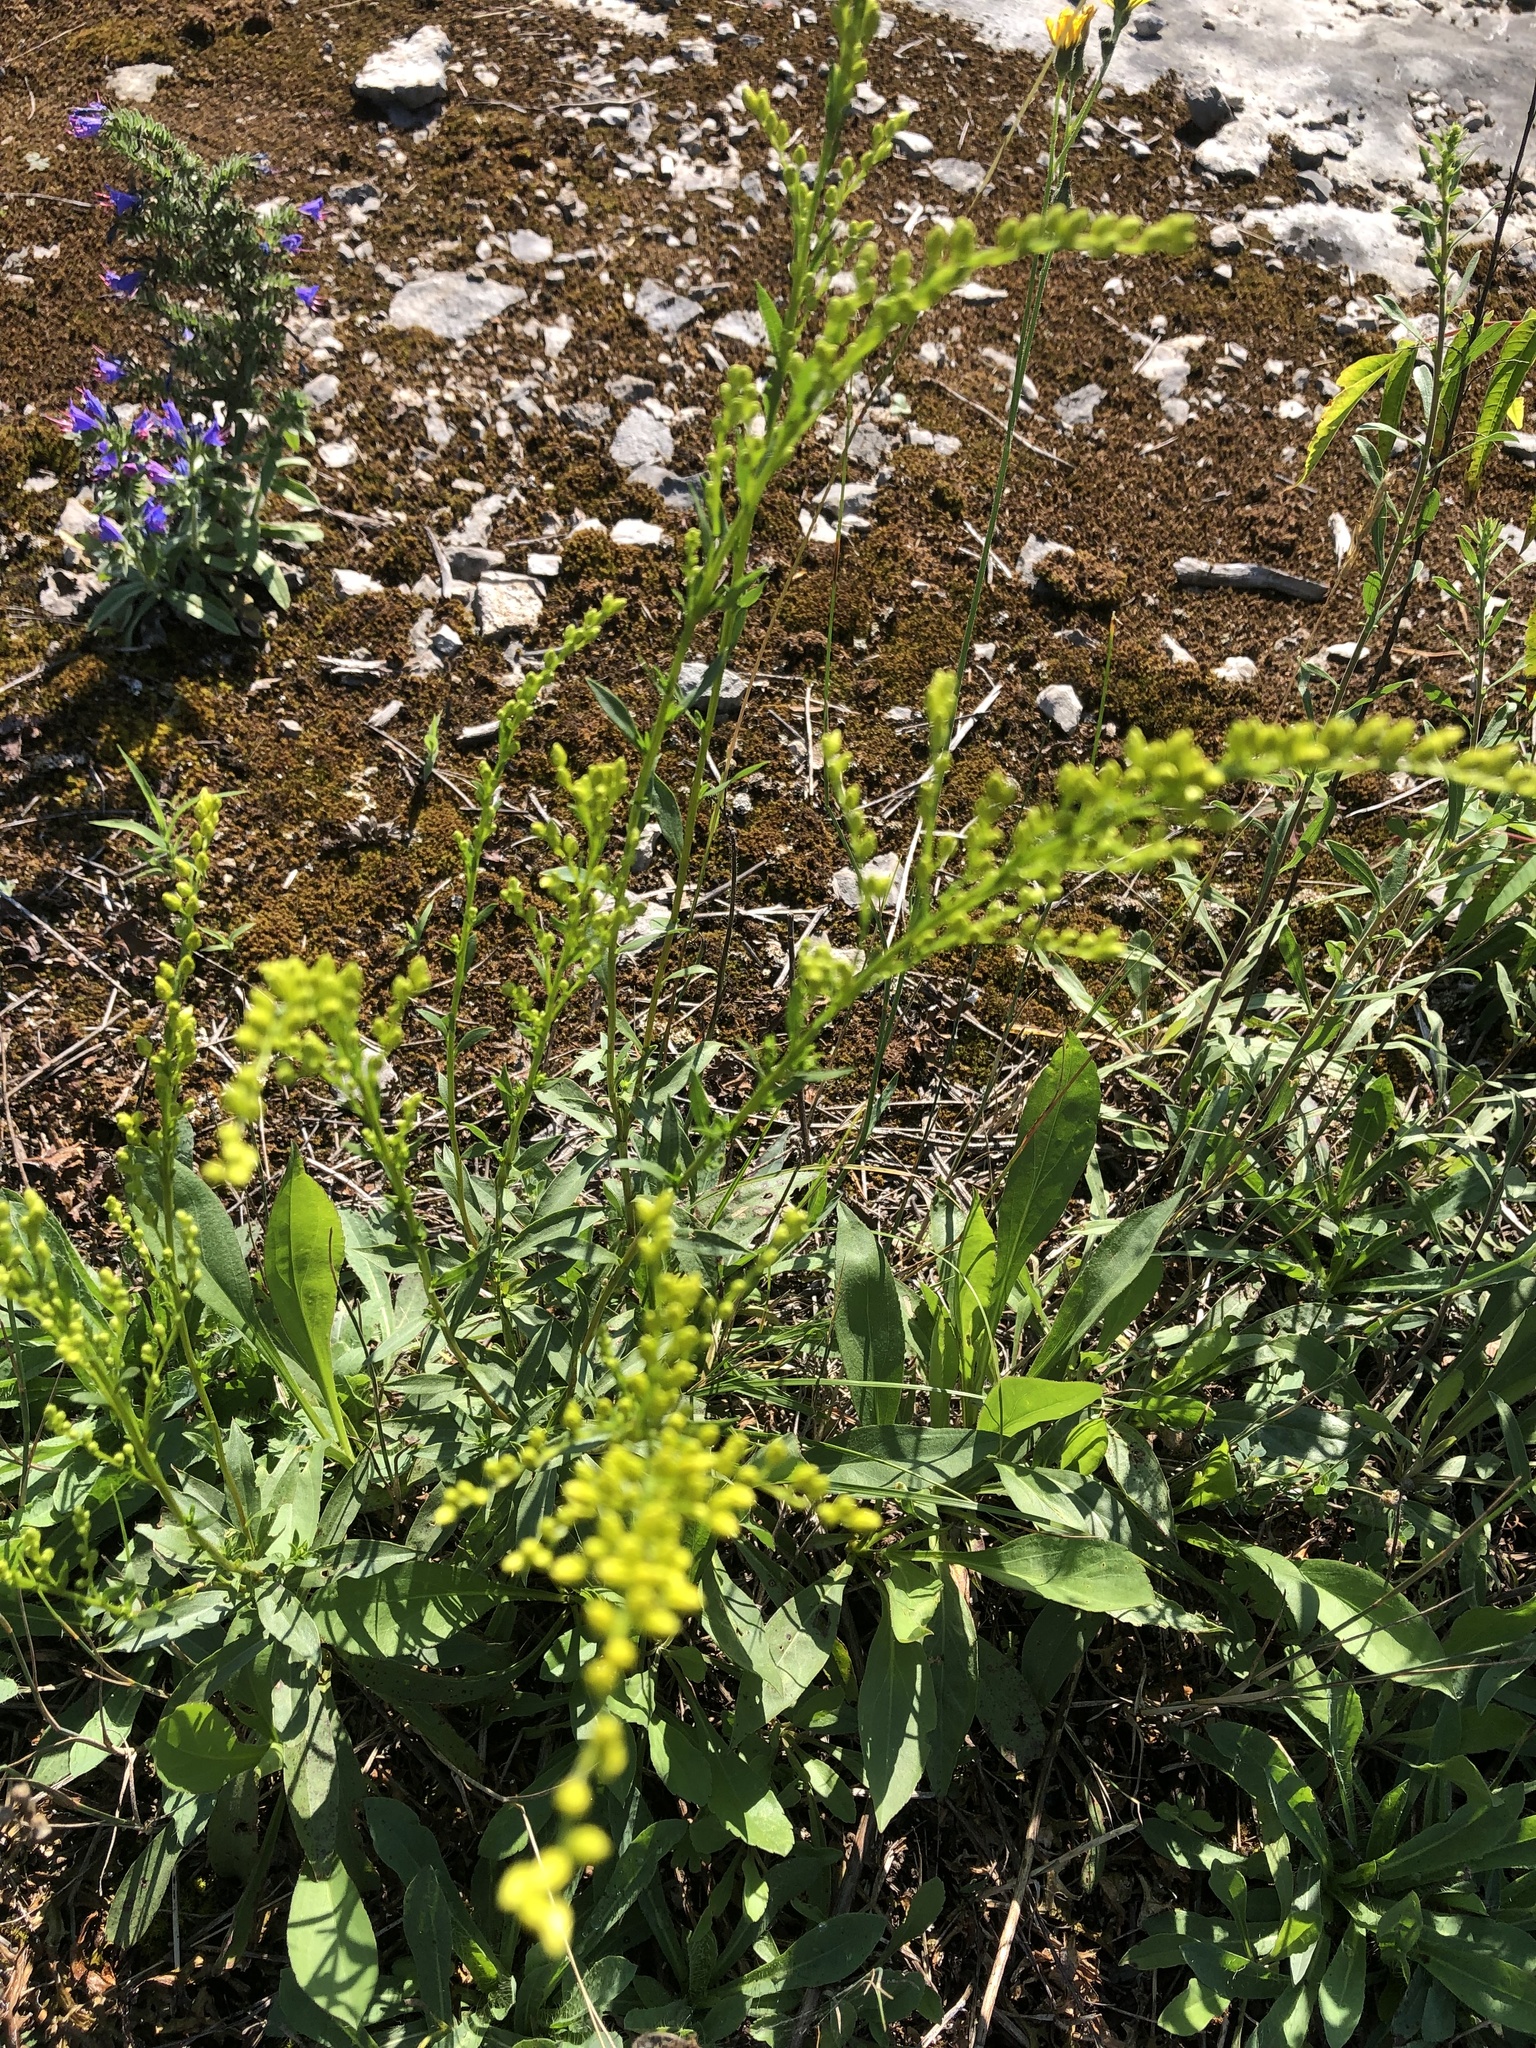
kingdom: Plantae
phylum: Tracheophyta
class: Magnoliopsida
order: Asterales
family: Asteraceae
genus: Solidago
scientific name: Solidago juncea
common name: Early goldenrod
